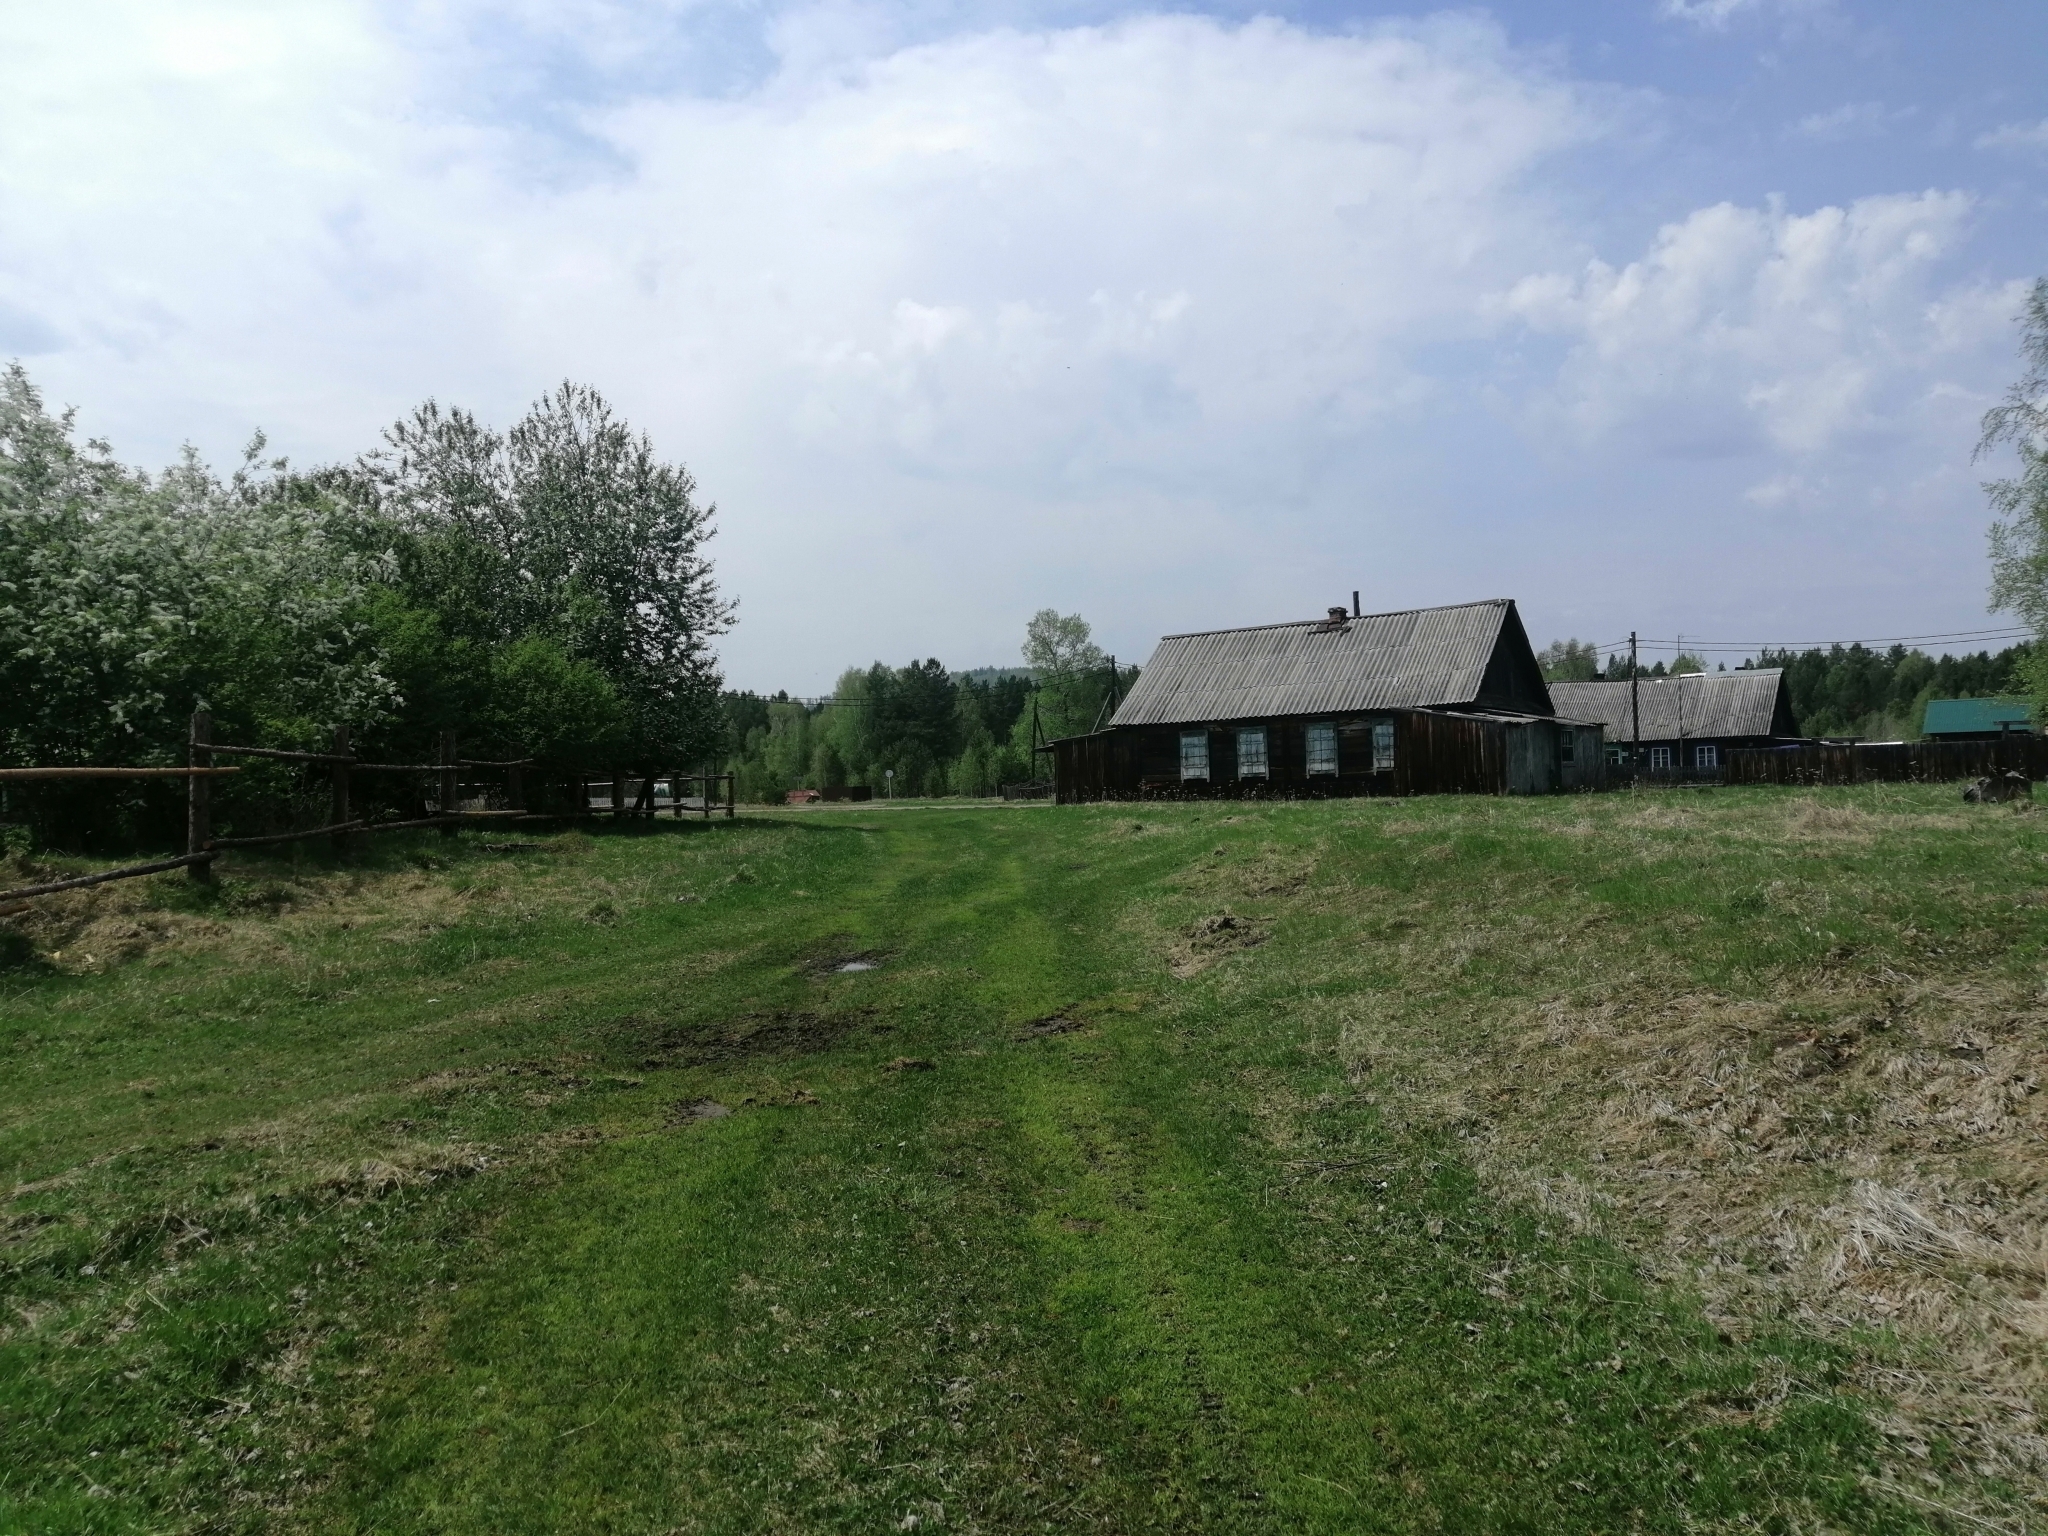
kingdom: Plantae
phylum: Tracheophyta
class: Magnoliopsida
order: Rosales
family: Rosaceae
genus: Prunus
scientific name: Prunus padus
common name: Bird cherry
